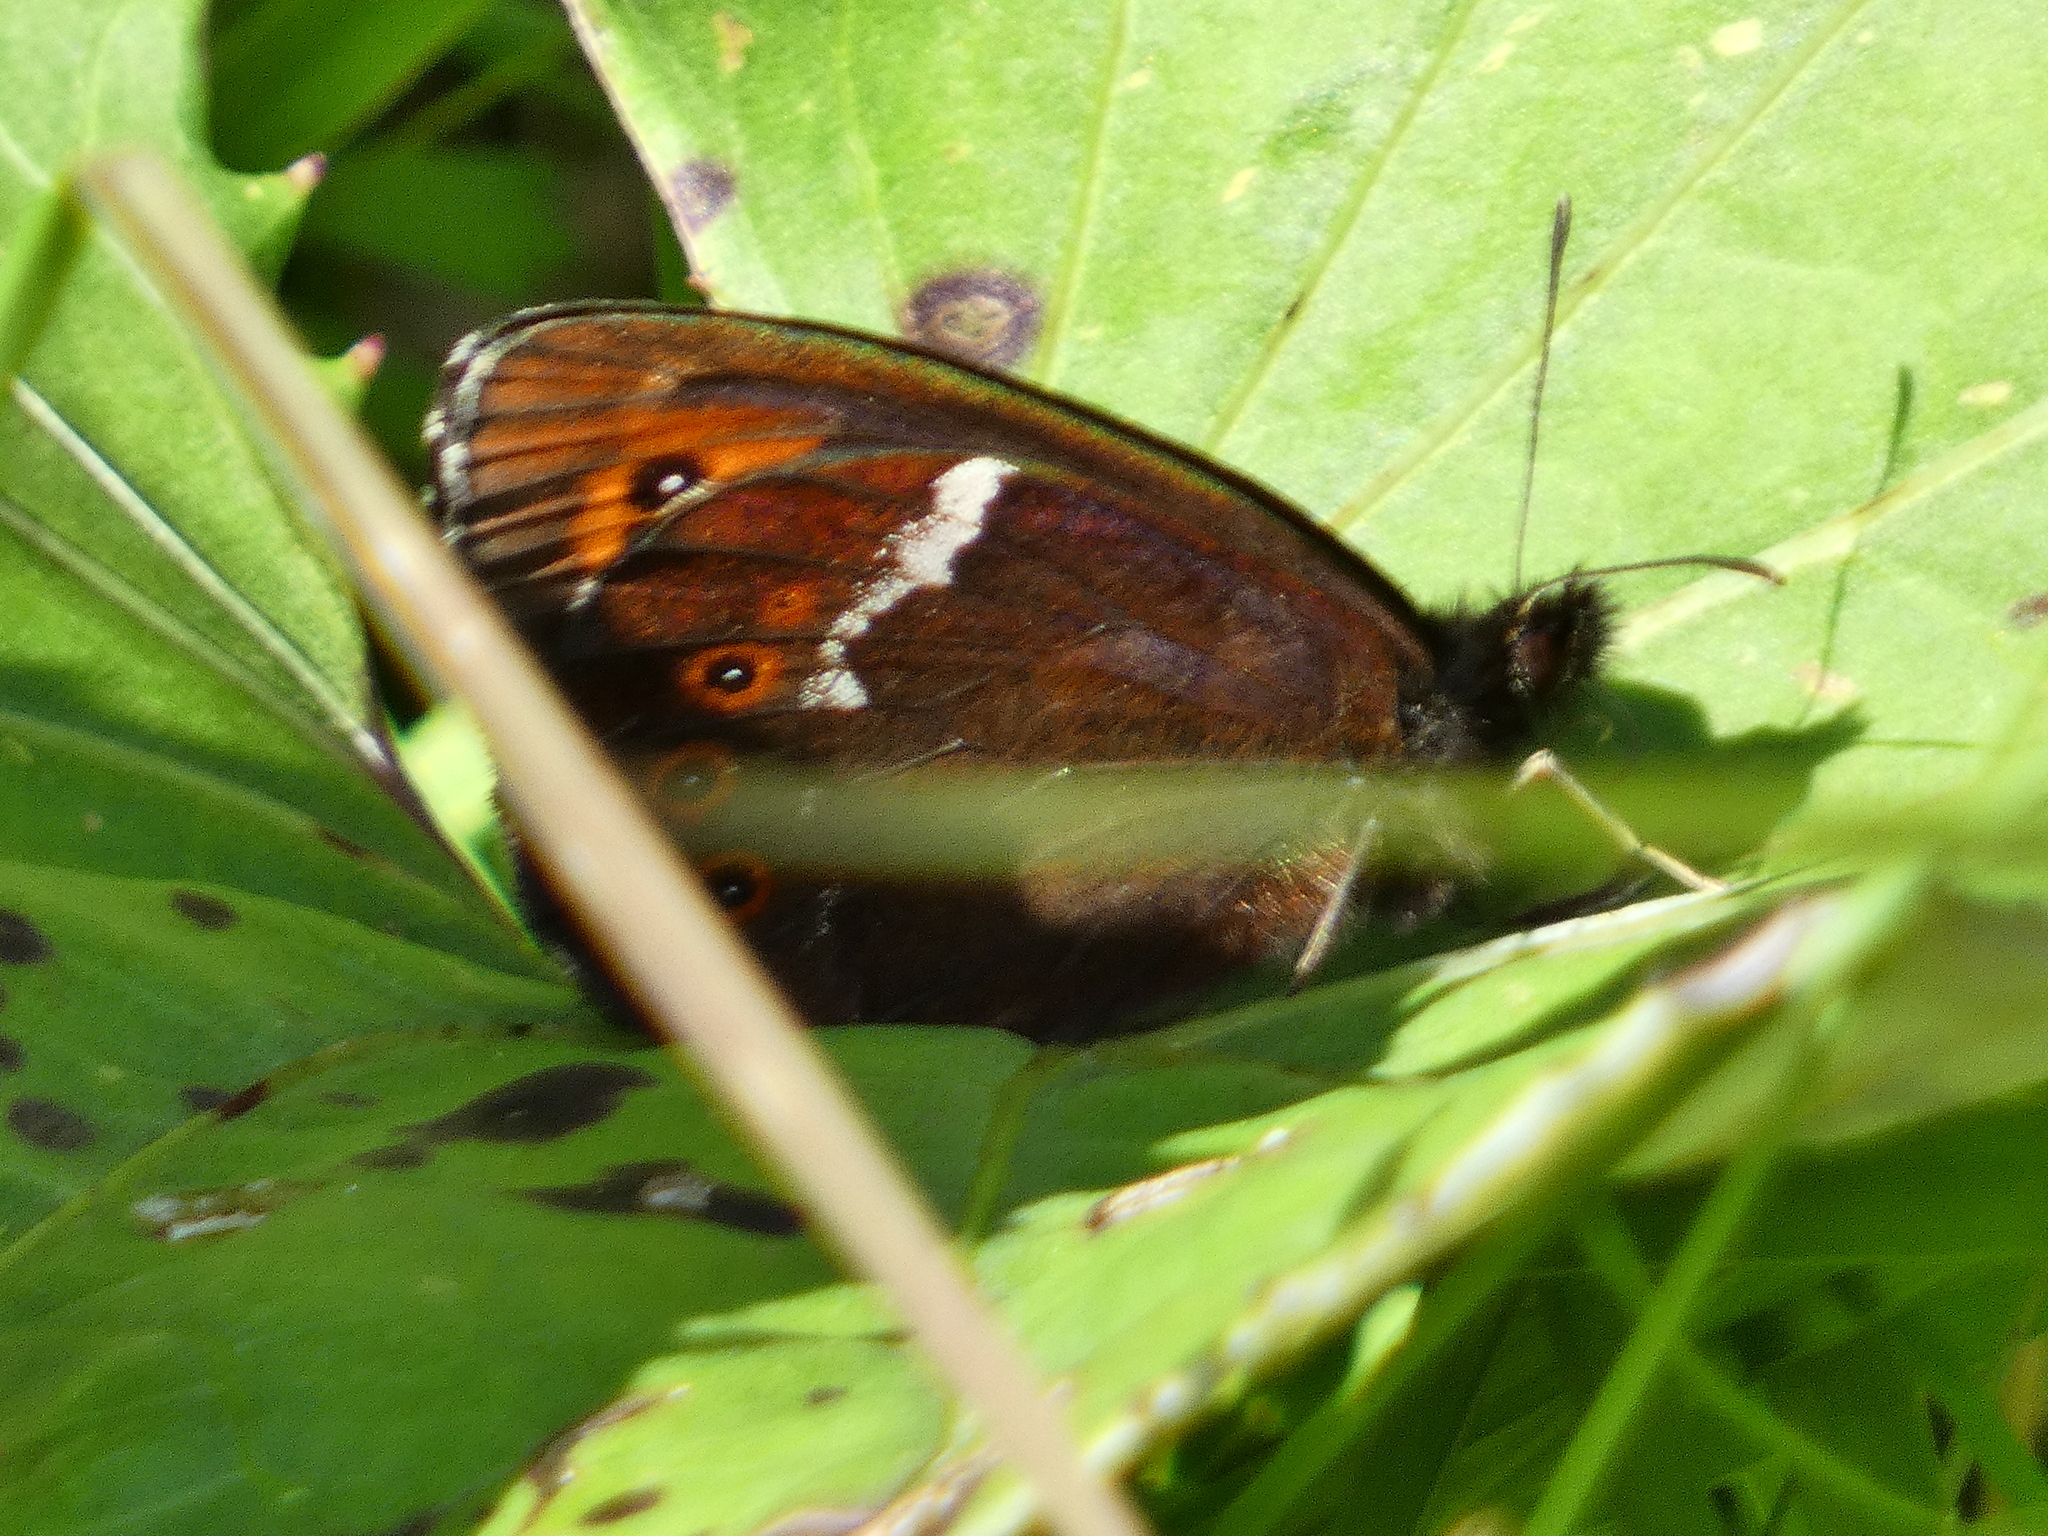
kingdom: Animalia
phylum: Arthropoda
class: Insecta
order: Lepidoptera
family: Nymphalidae
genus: Erebia
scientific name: Erebia ligea
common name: Arran brown
